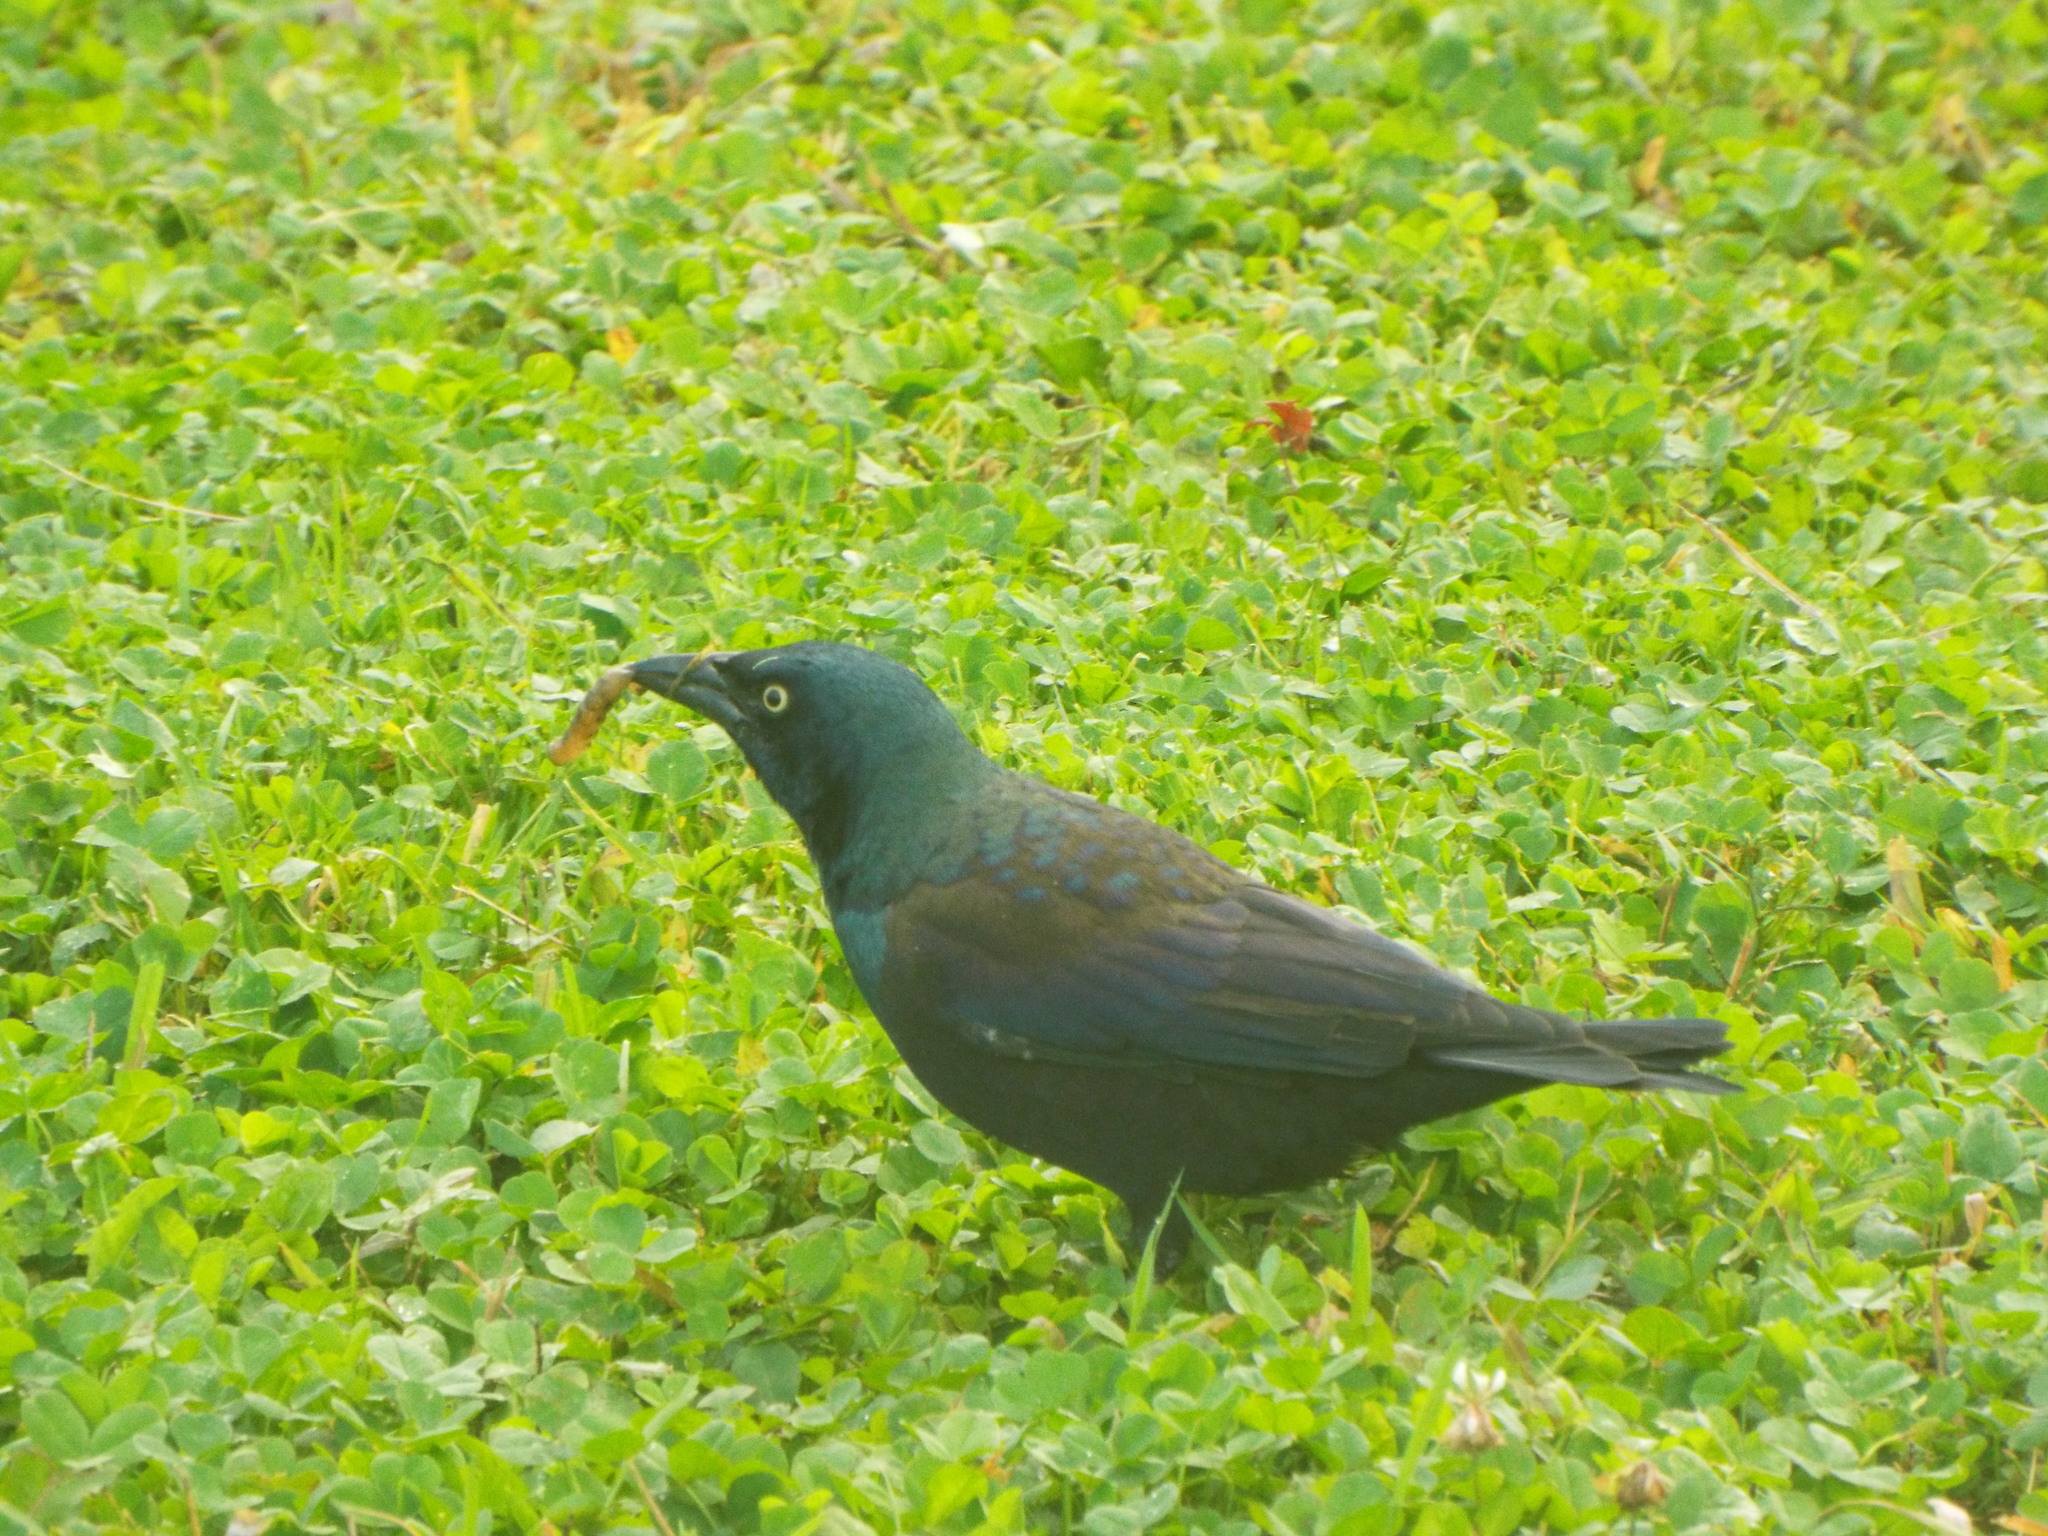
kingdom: Animalia
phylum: Chordata
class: Aves
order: Passeriformes
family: Icteridae
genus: Quiscalus
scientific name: Quiscalus quiscula
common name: Common grackle
